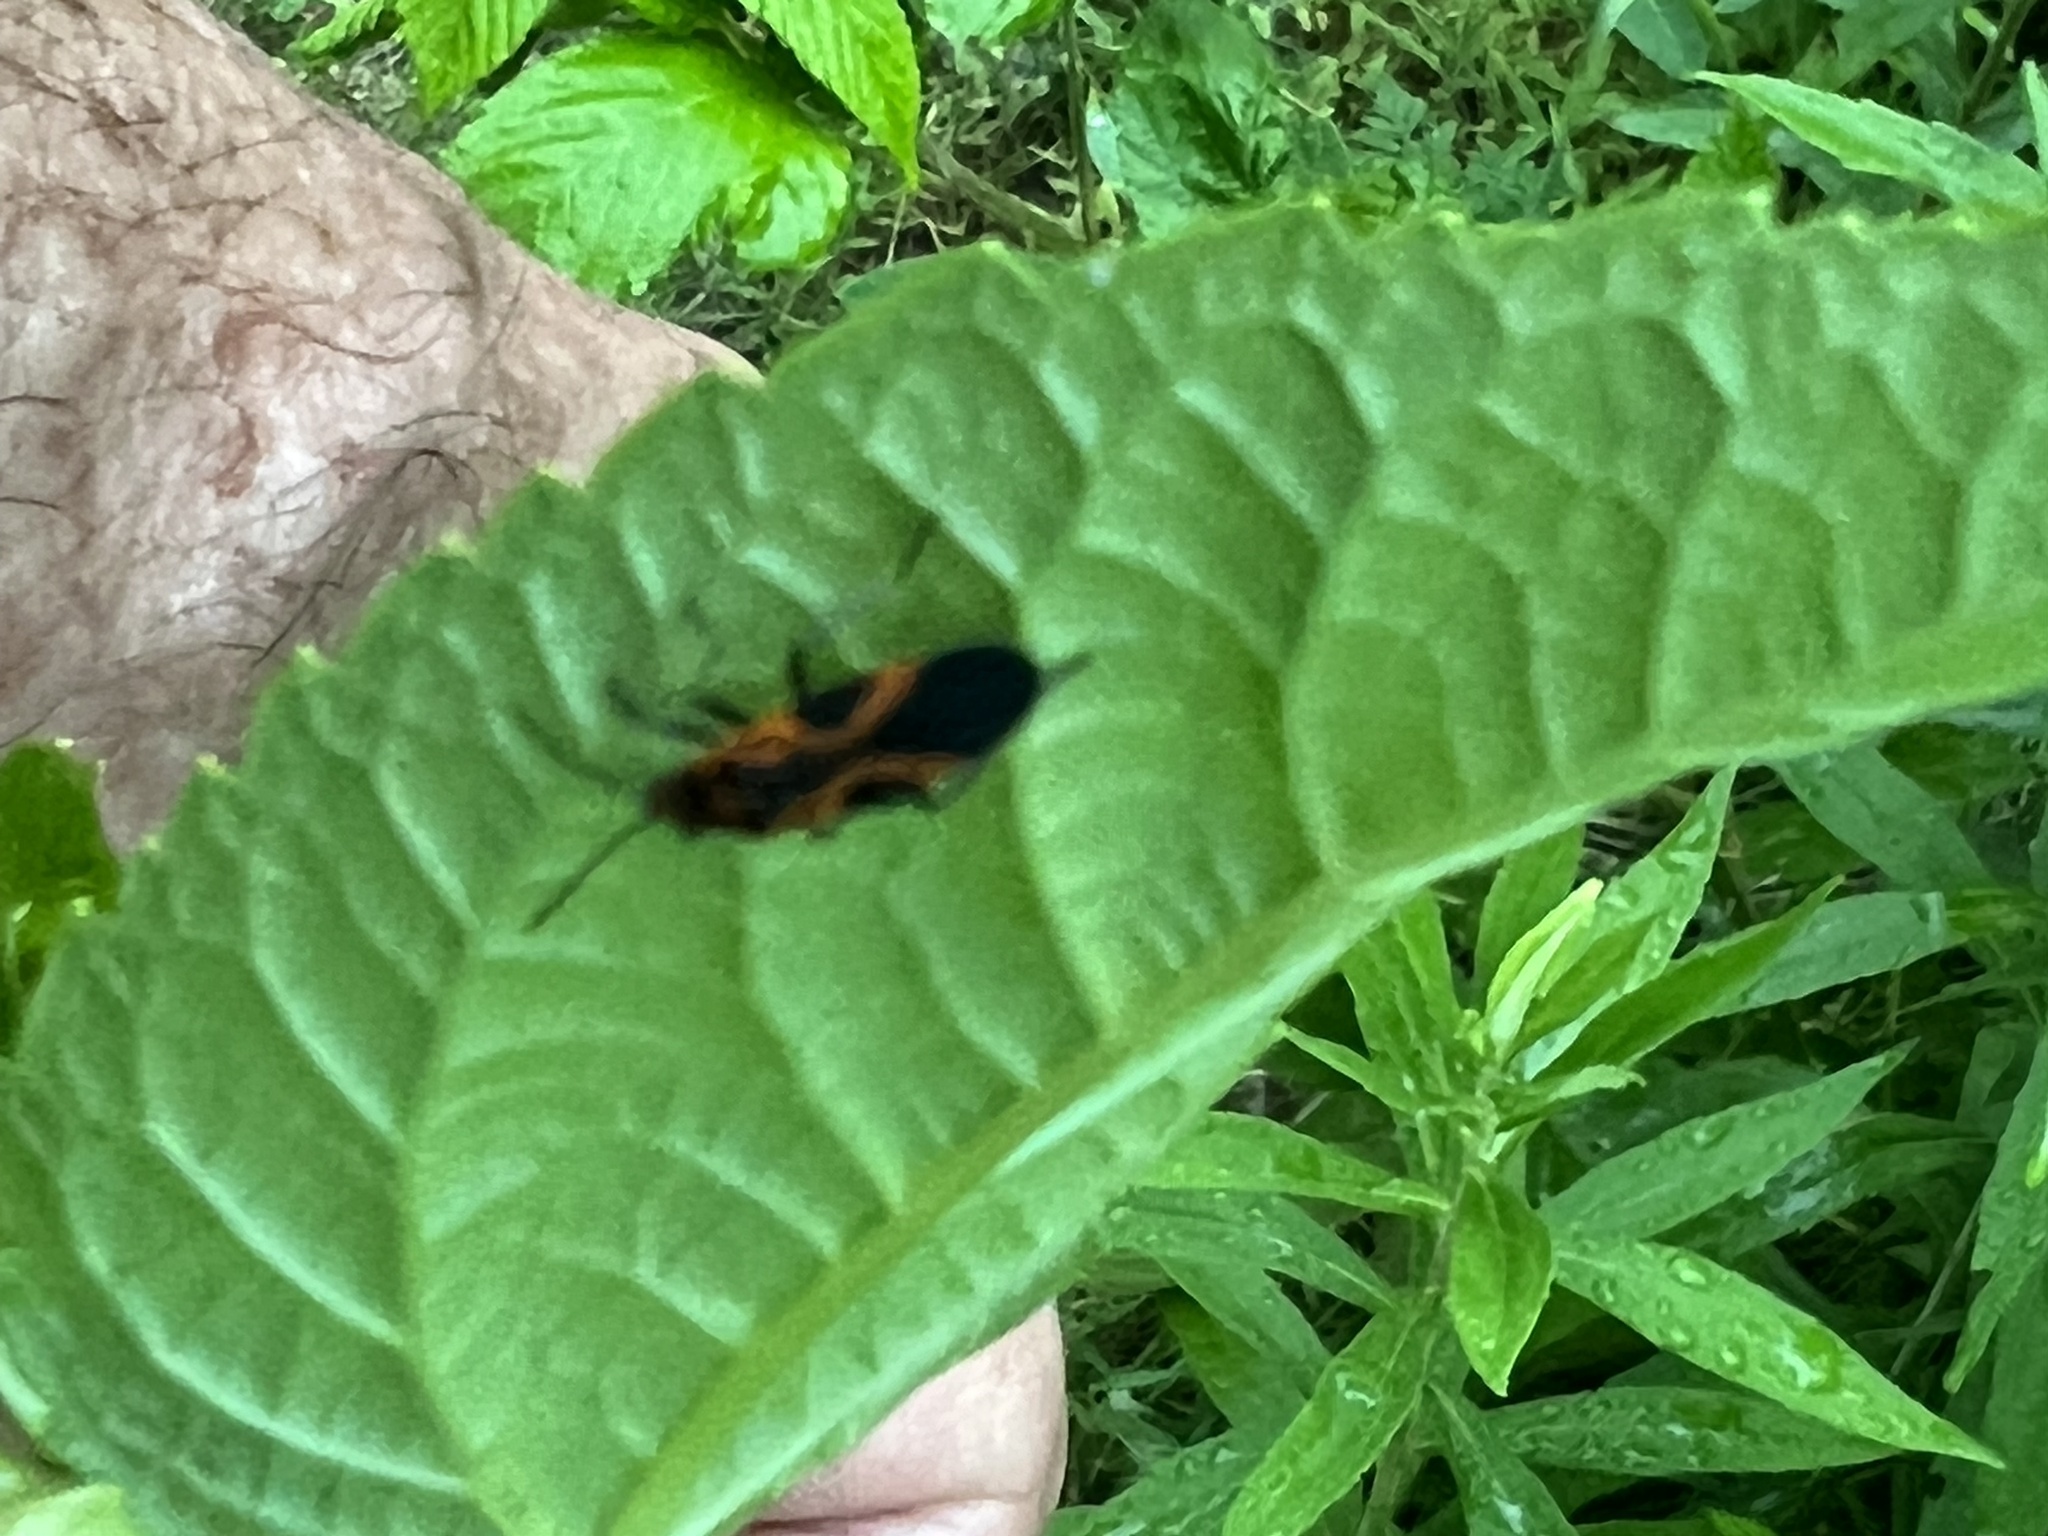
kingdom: Animalia
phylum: Arthropoda
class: Insecta
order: Hemiptera
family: Lygaeidae
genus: Lygaeus
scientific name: Lygaeus turcicus
